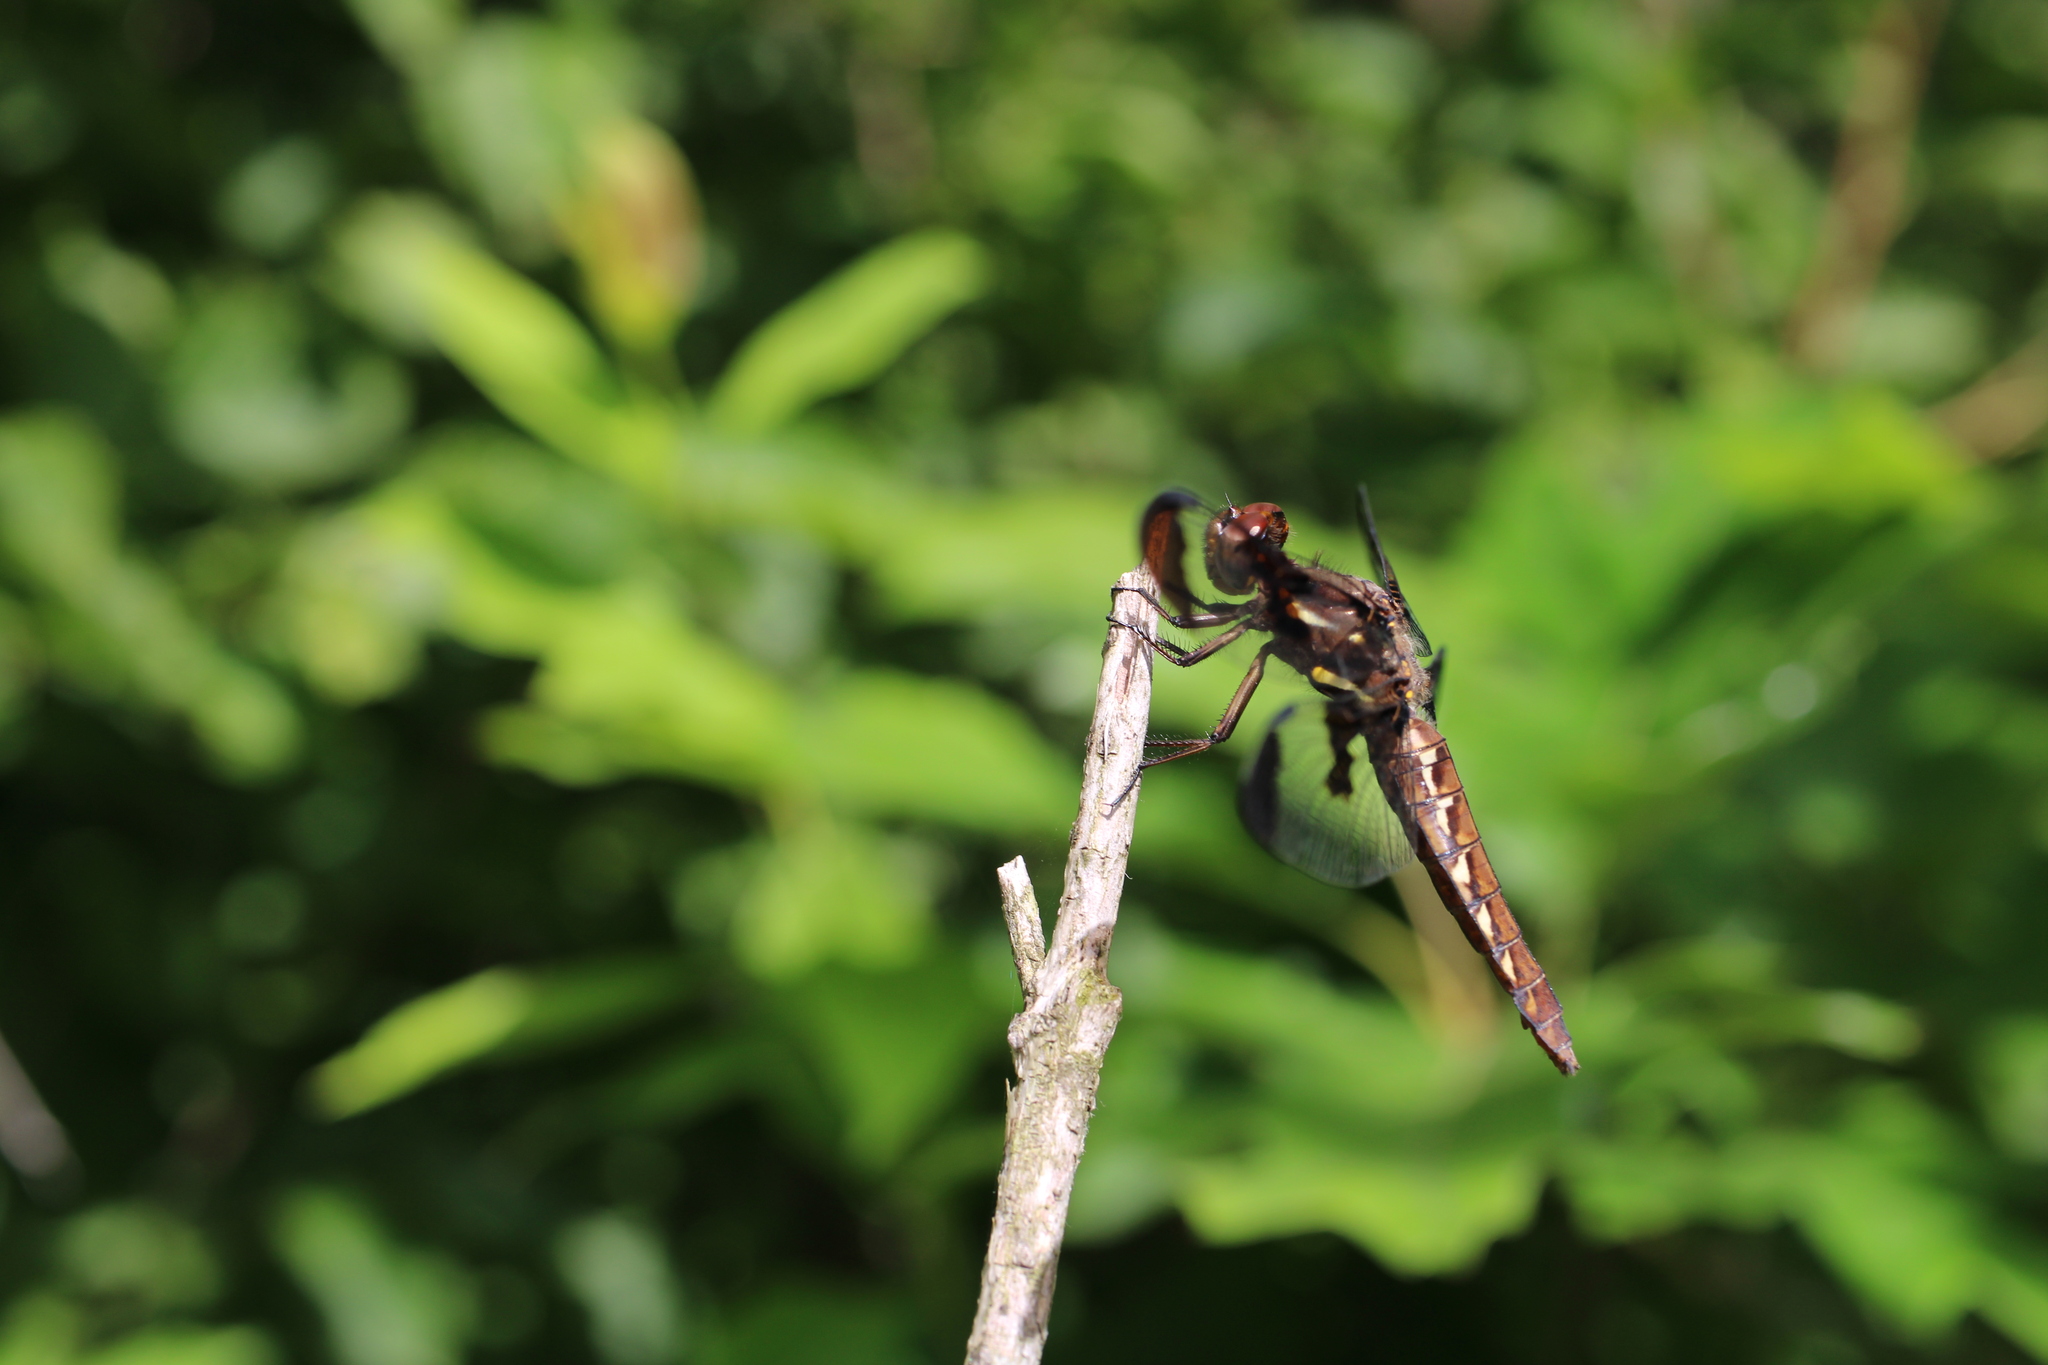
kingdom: Animalia
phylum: Arthropoda
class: Insecta
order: Odonata
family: Libellulidae
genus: Plathemis
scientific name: Plathemis lydia
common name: Common whitetail
